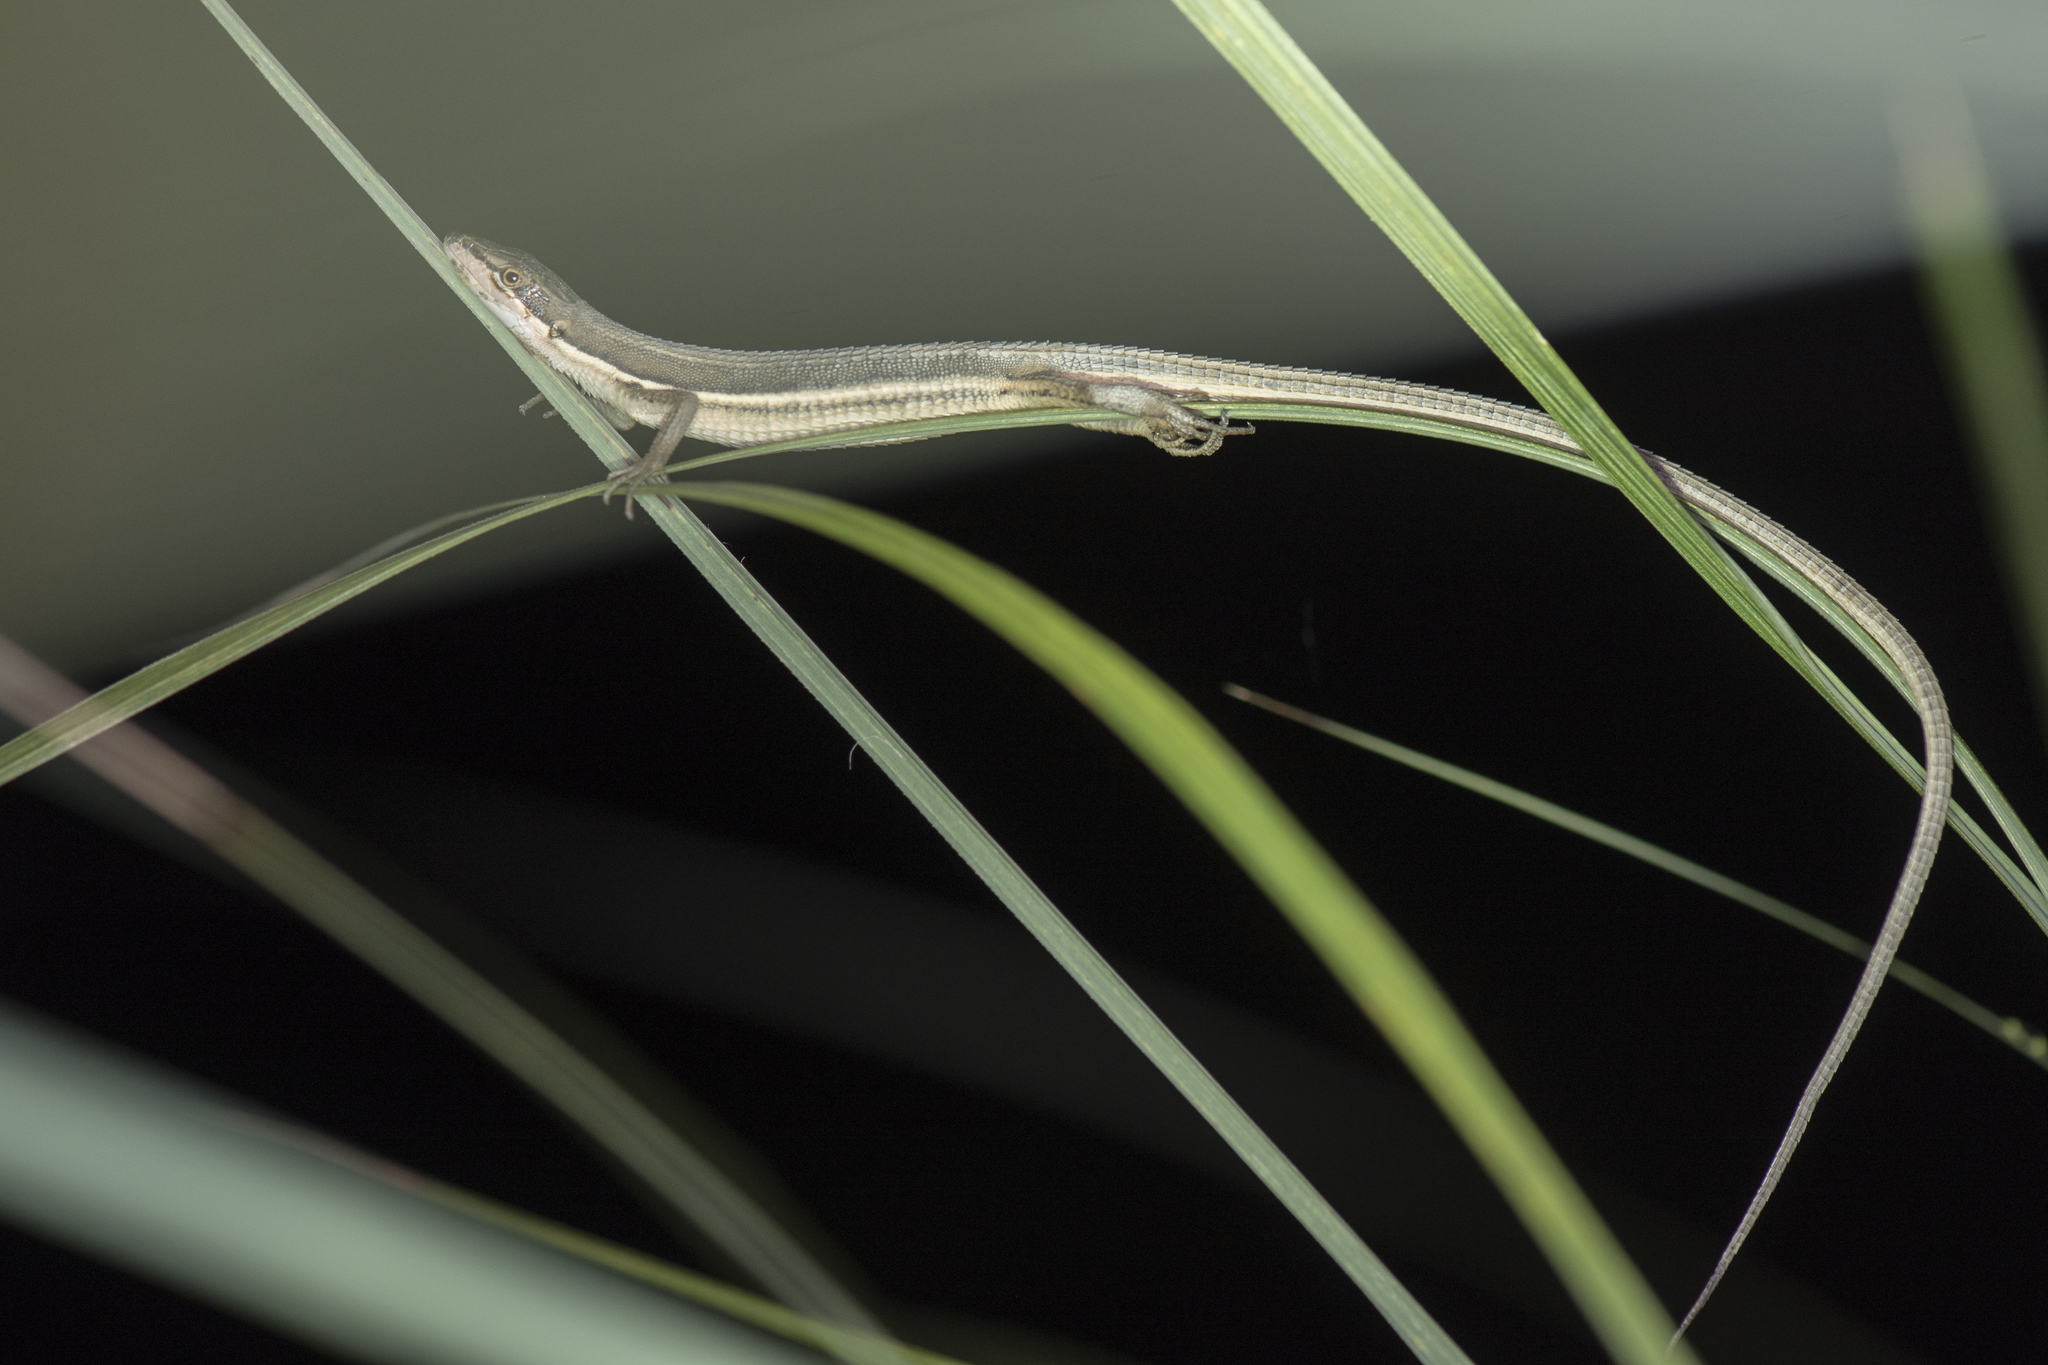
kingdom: Animalia
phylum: Chordata
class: Squamata
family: Lacertidae
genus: Takydromus
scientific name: Takydromus formosanus
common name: Formosa grass lizard
